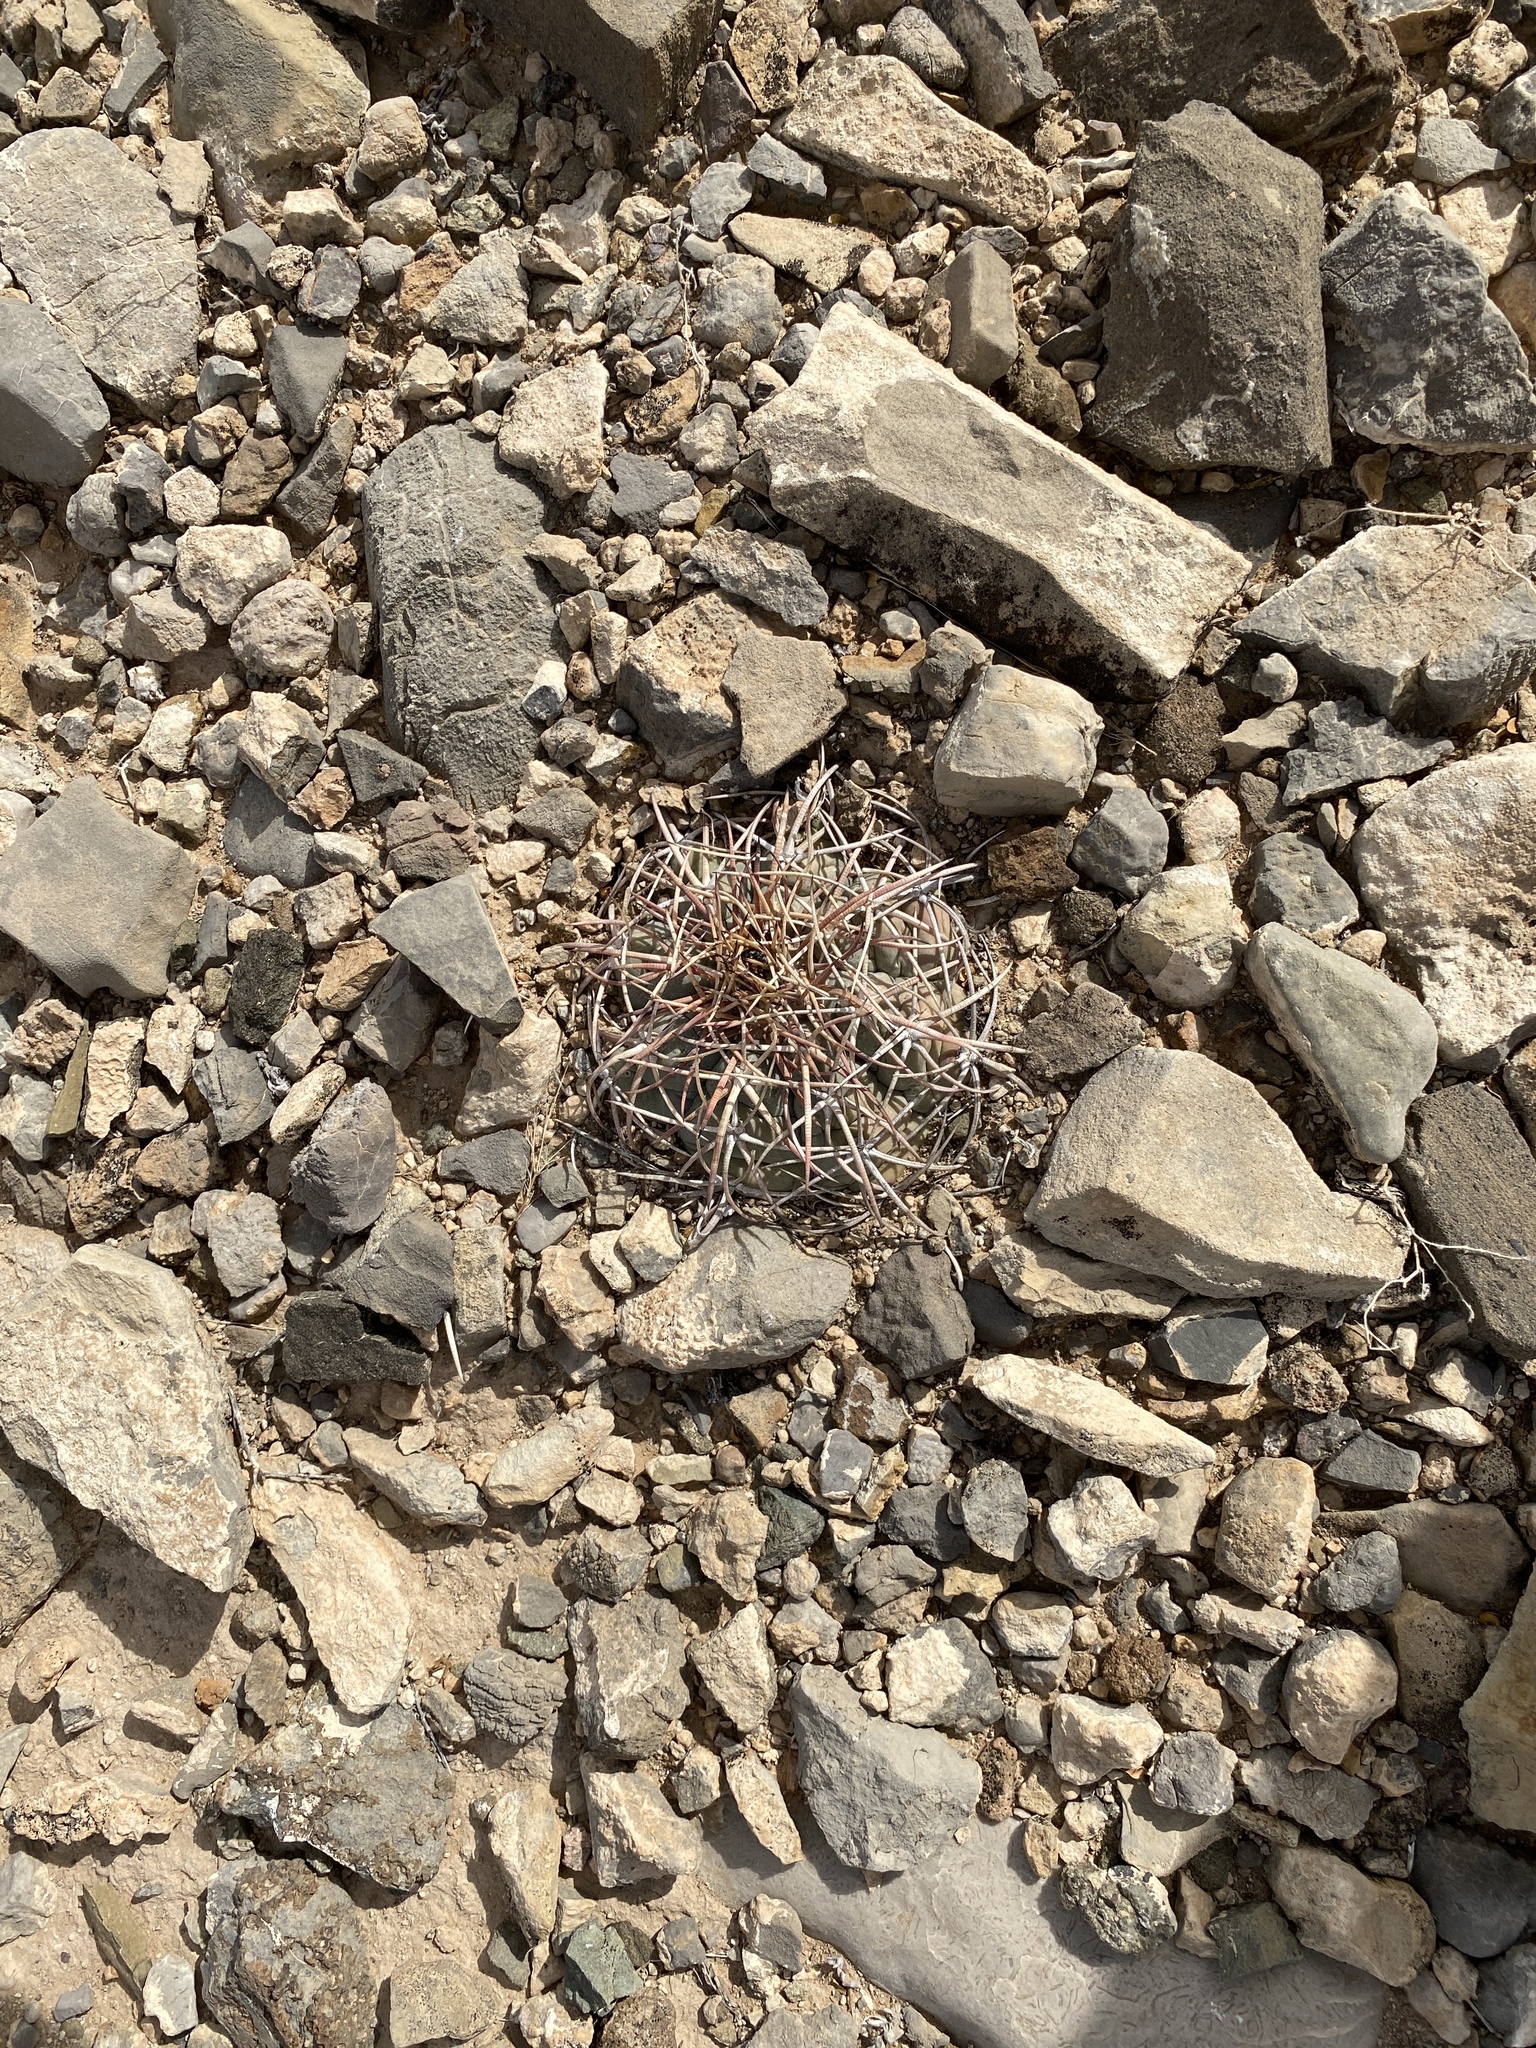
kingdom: Plantae
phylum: Tracheophyta
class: Magnoliopsida
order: Caryophyllales
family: Cactaceae
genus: Echinocactus
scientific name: Echinocactus horizonthalonius
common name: Devilshead
